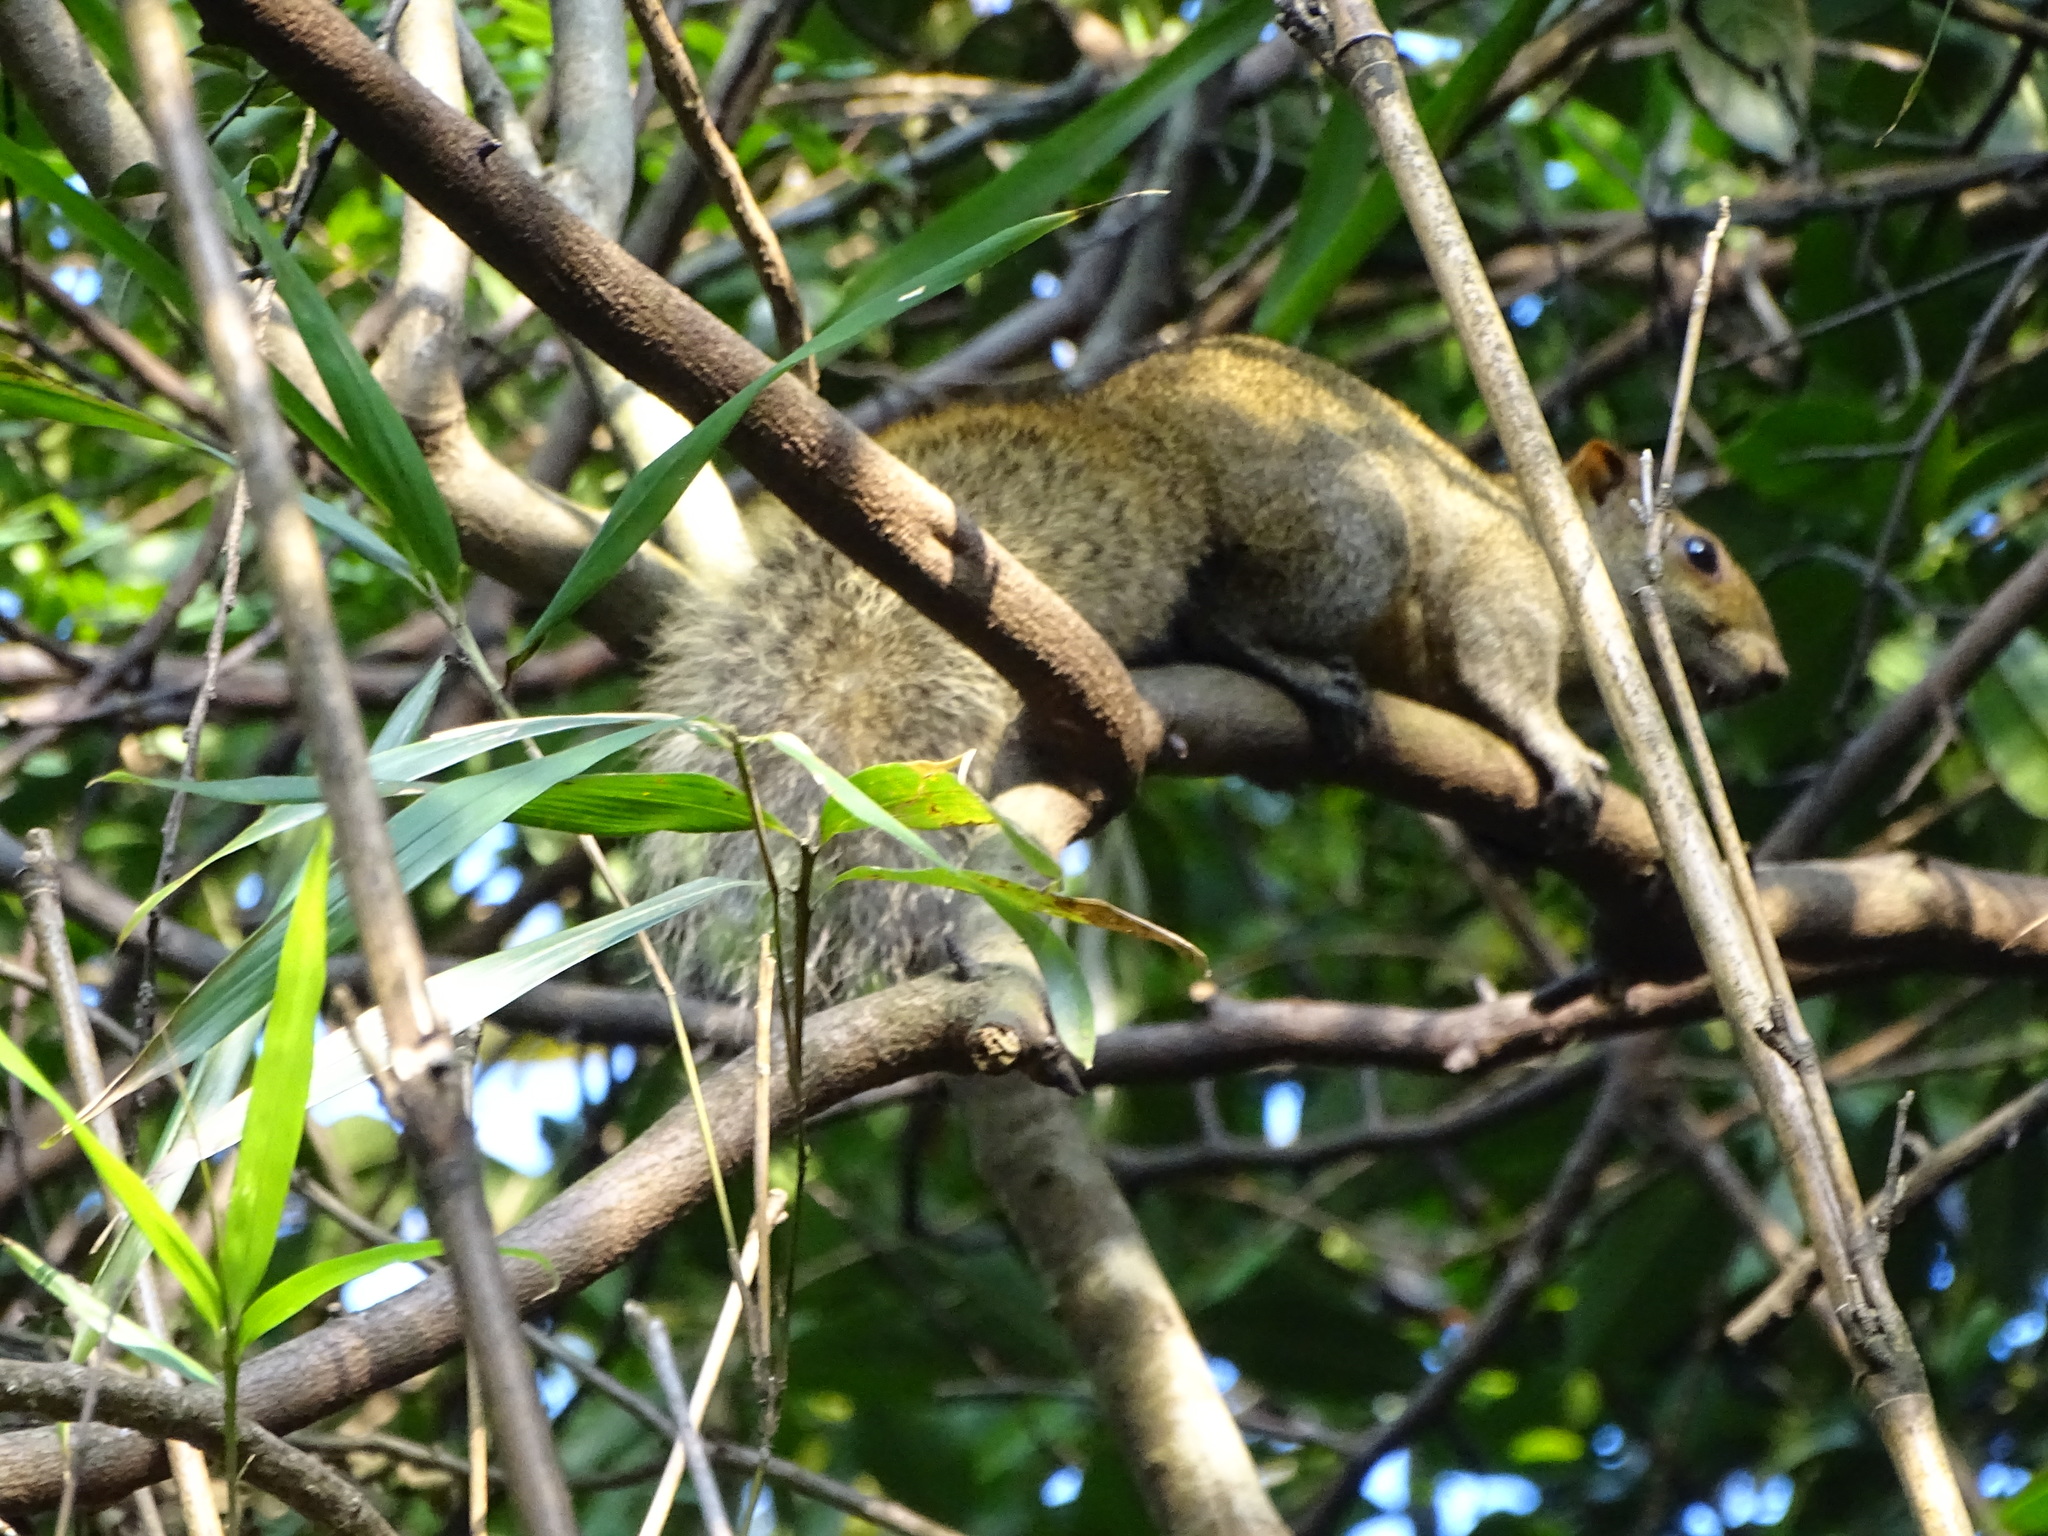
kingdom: Animalia
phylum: Chordata
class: Mammalia
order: Rodentia
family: Sciuridae
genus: Callosciurus
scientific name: Callosciurus erythraeus
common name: Pallas's squirrel
